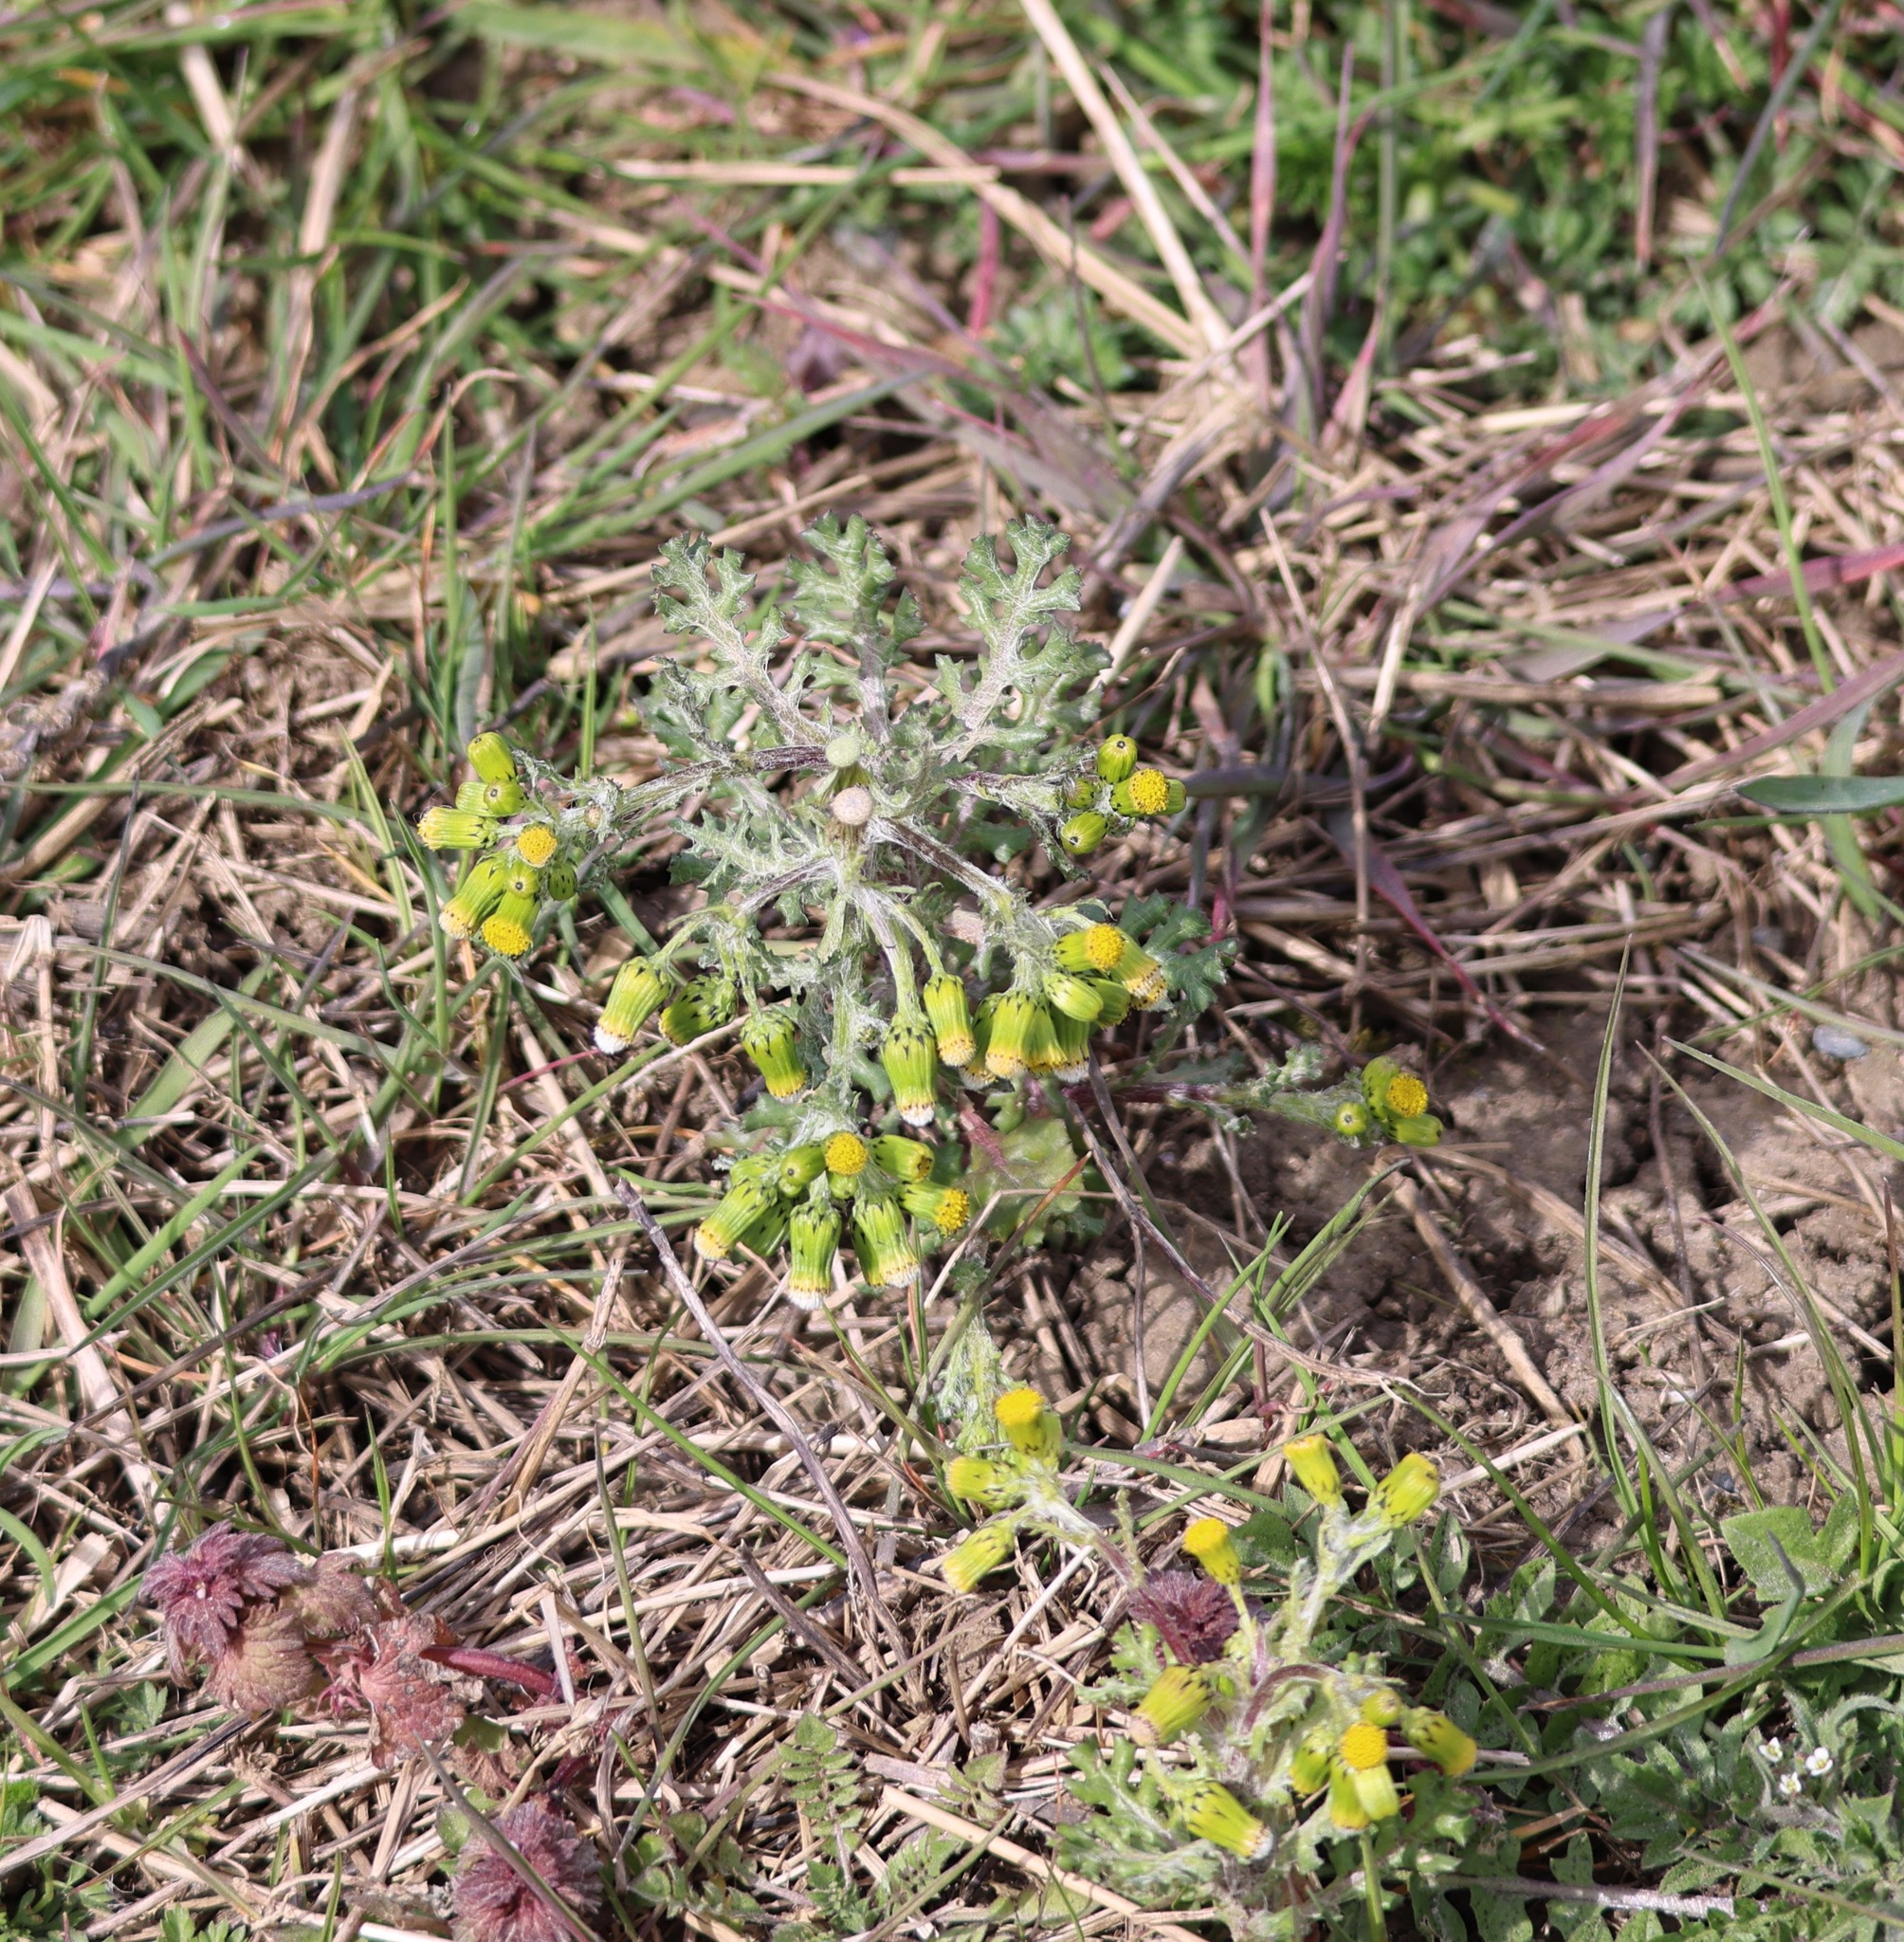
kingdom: Plantae
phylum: Tracheophyta
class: Magnoliopsida
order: Asterales
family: Asteraceae
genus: Senecio
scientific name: Senecio vulgaris
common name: Old-man-in-the-spring
